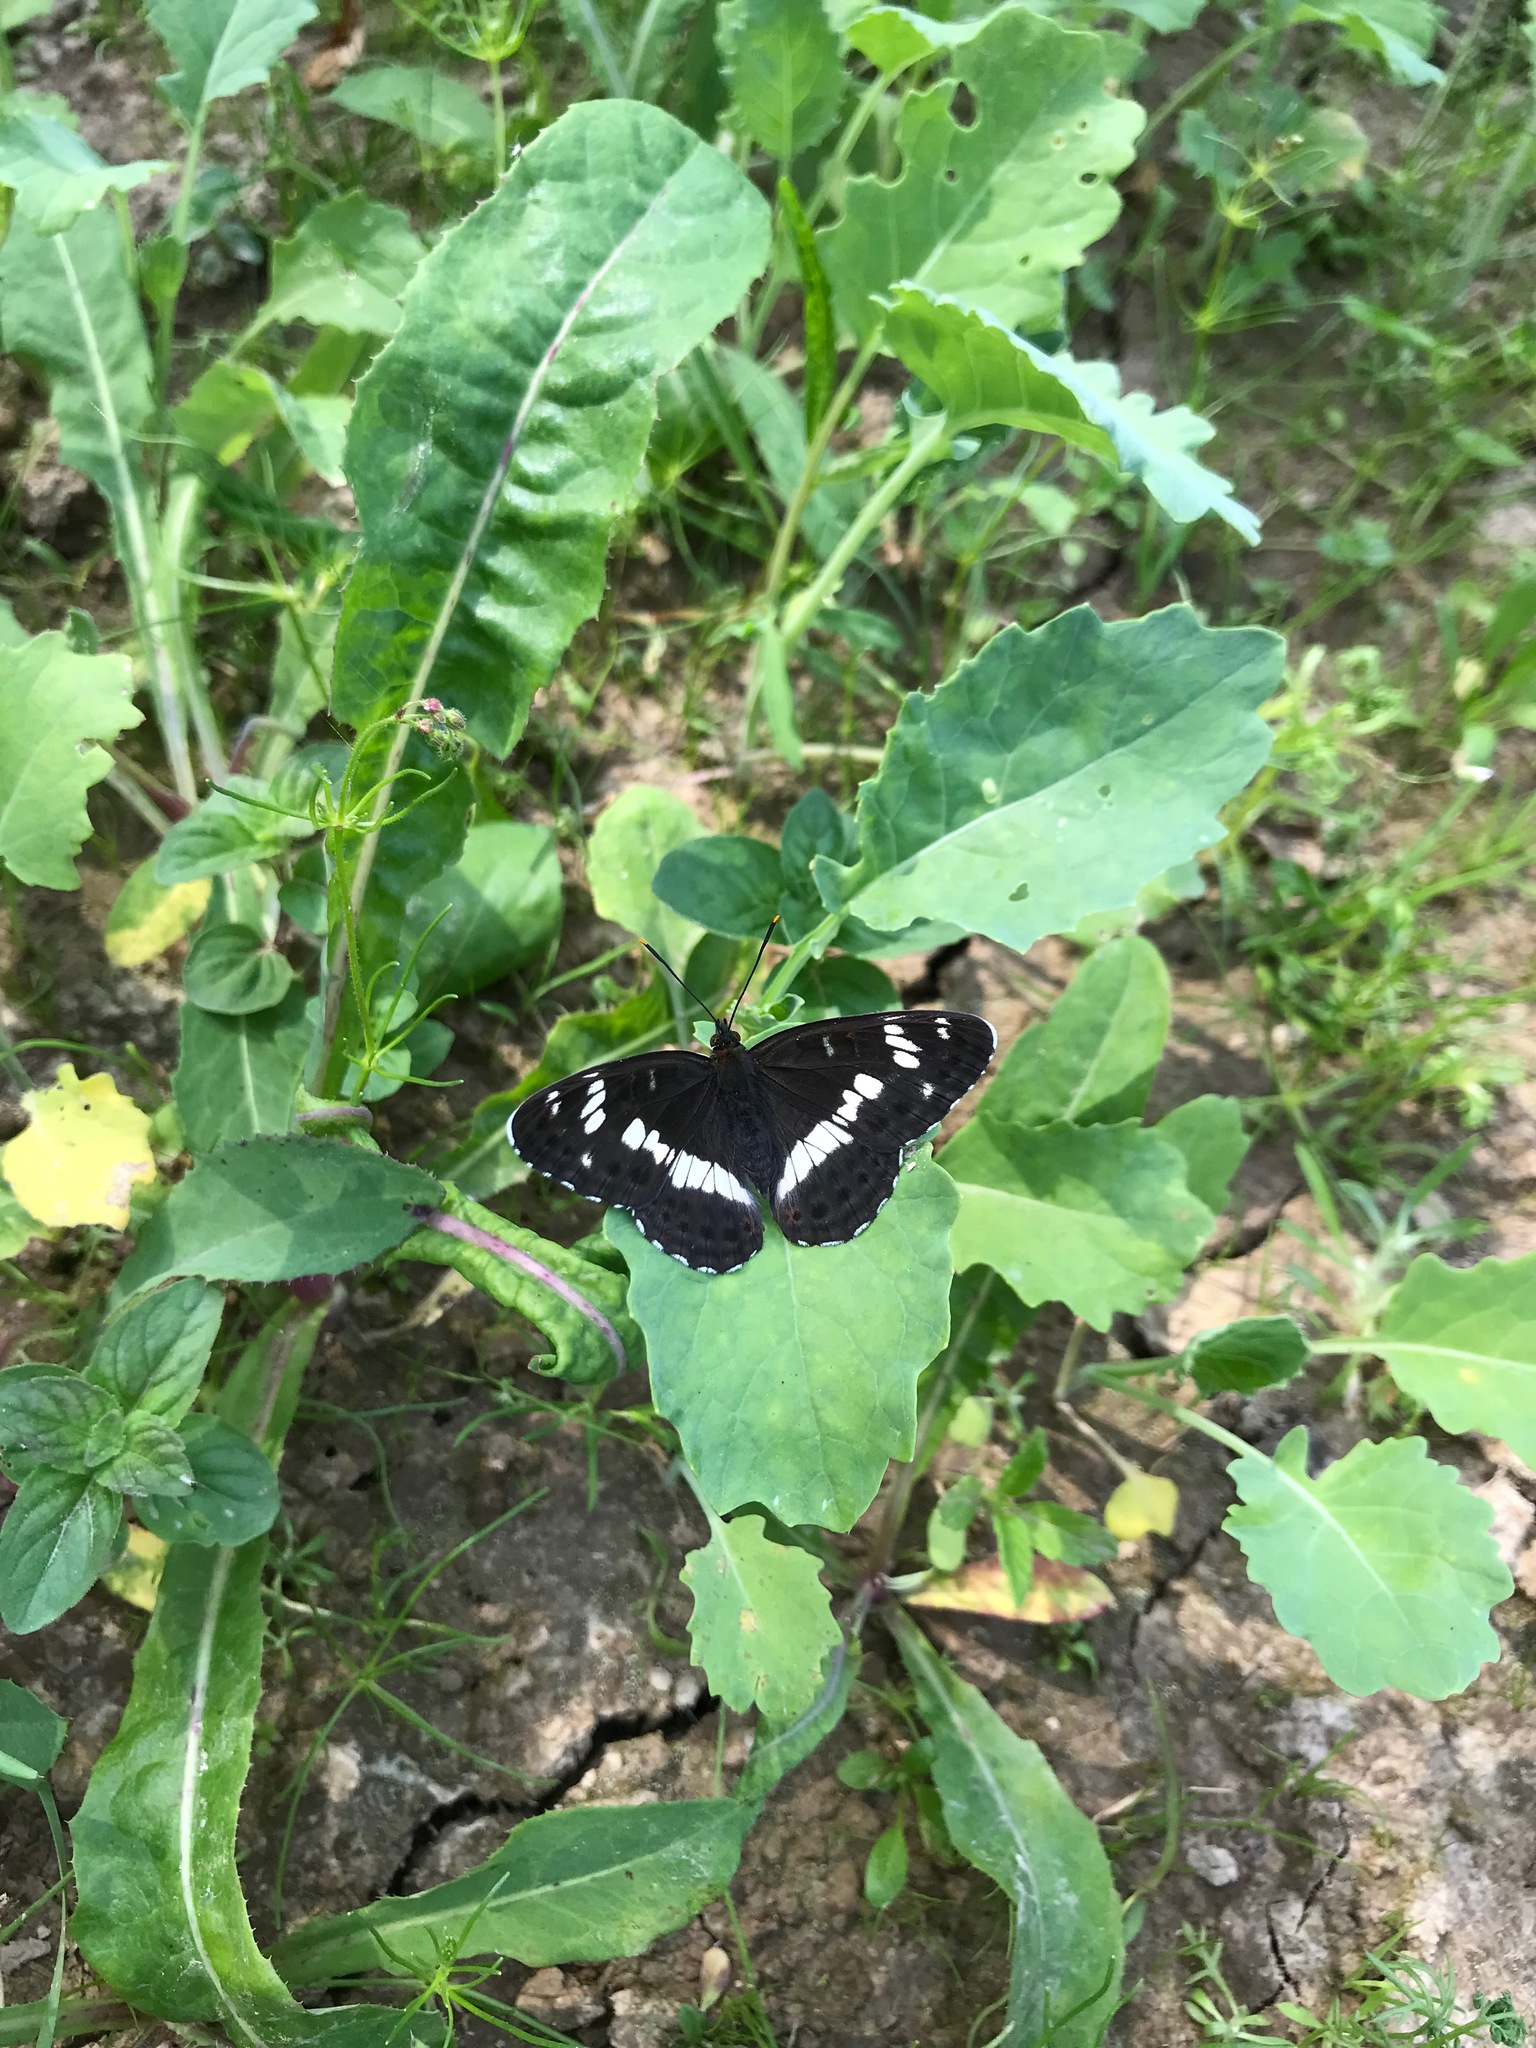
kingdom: Animalia
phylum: Arthropoda
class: Insecta
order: Lepidoptera
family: Nymphalidae
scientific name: Nymphalidae
